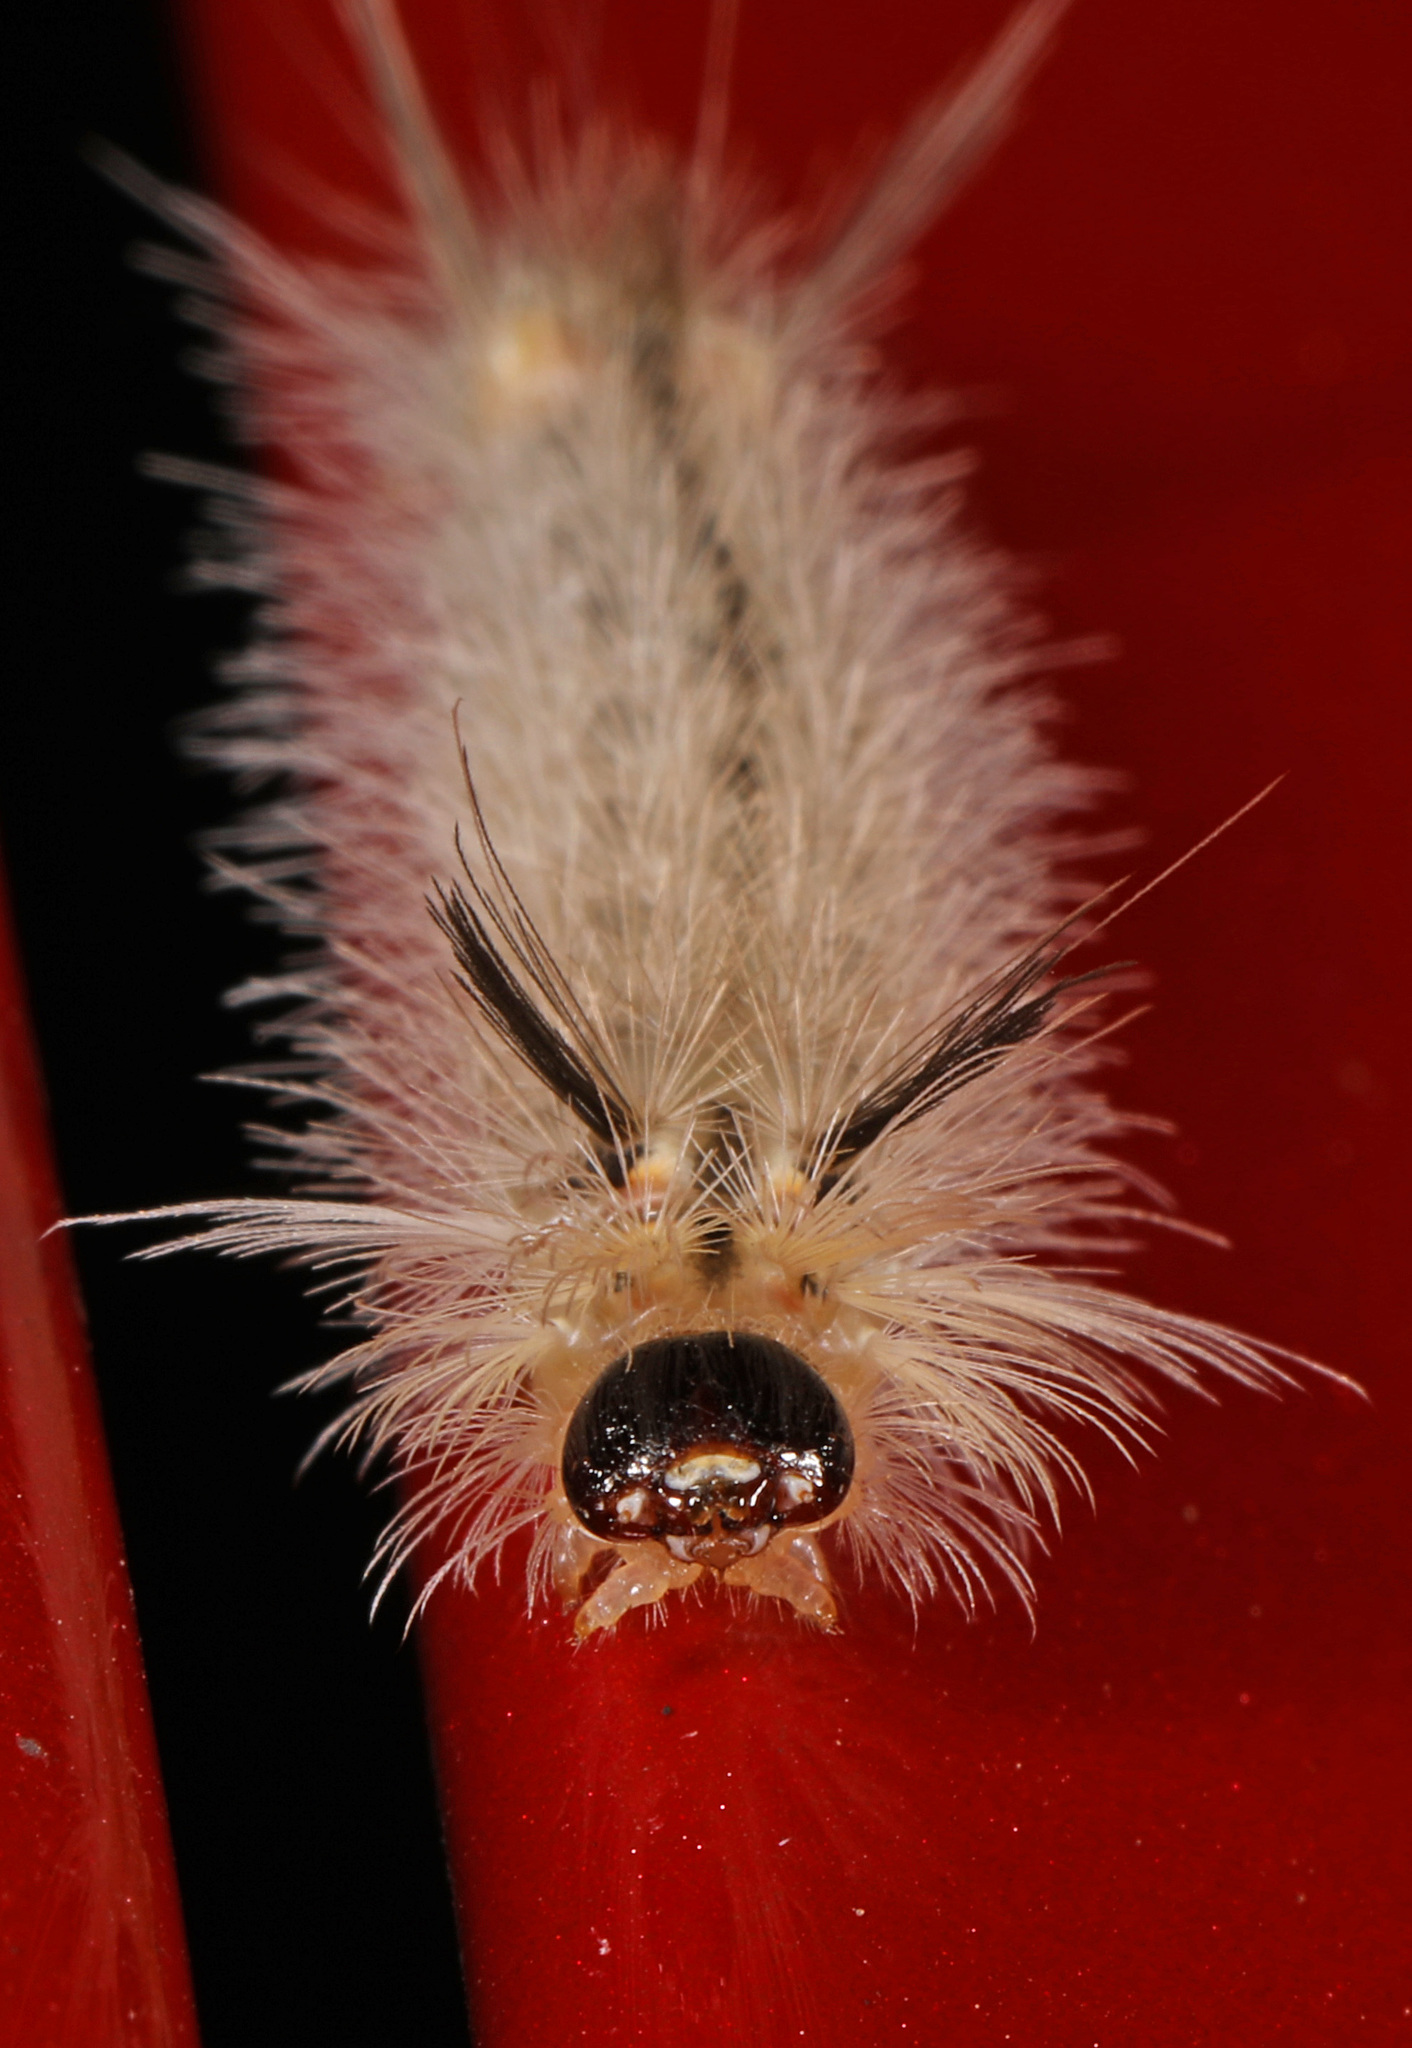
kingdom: Animalia
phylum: Arthropoda
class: Insecta
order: Lepidoptera
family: Erebidae
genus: Halysidota
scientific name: Halysidota tessellaris
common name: Banded tussock moth
